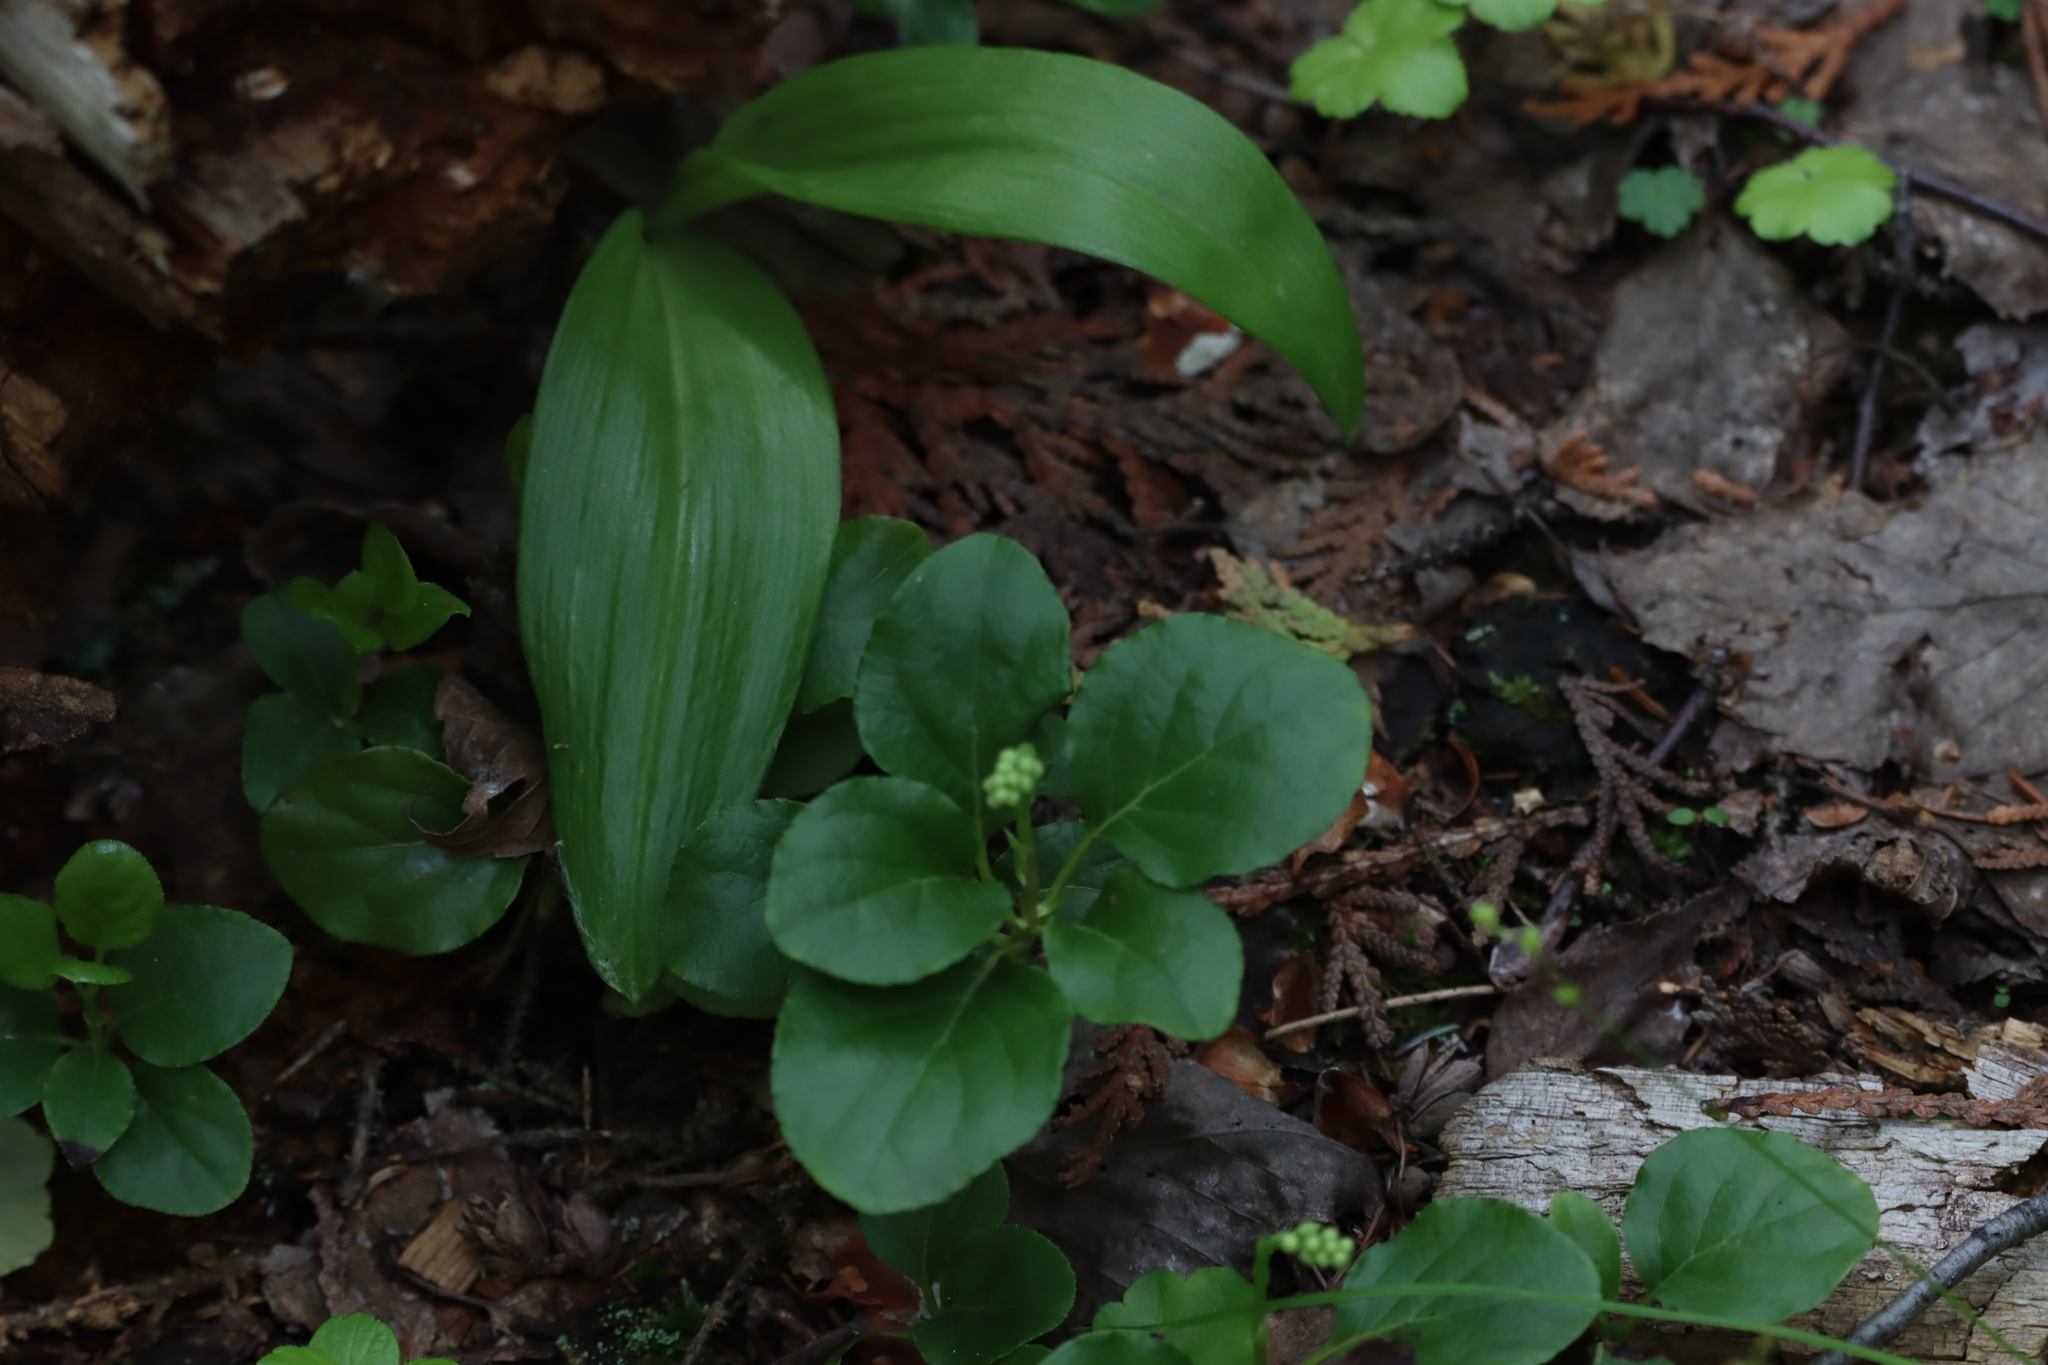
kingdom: Plantae
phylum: Tracheophyta
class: Magnoliopsida
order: Ericales
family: Ericaceae
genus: Orthilia
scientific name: Orthilia secunda
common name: One-sided orthilia
